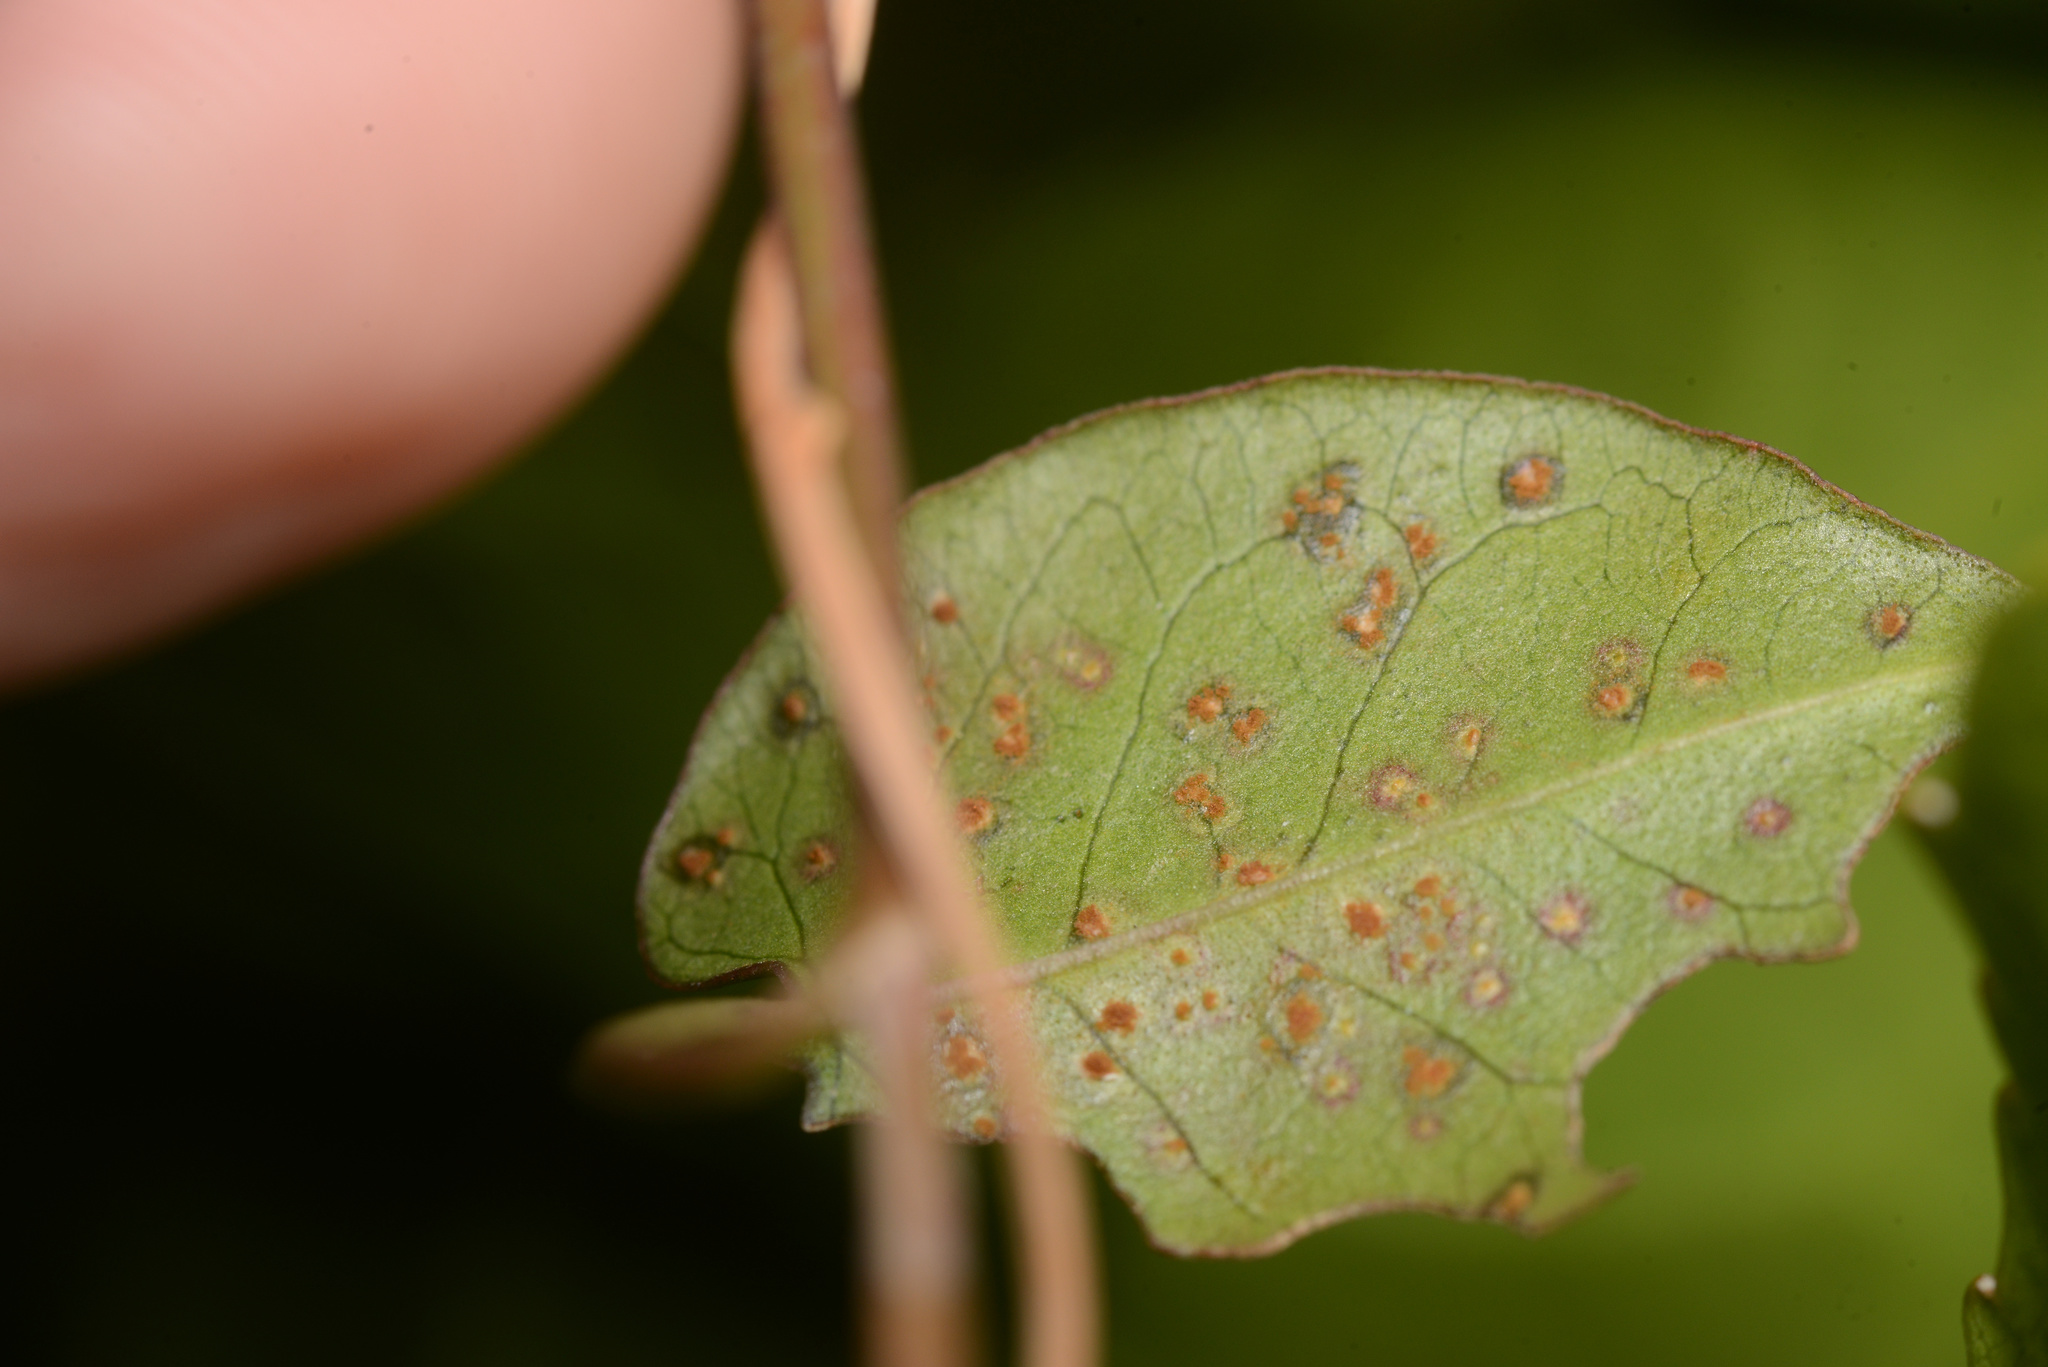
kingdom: Fungi
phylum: Basidiomycota
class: Pucciniomycetes
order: Pucciniales
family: Pucciniaceae
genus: Puccinia
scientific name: Puccinia otagensis
